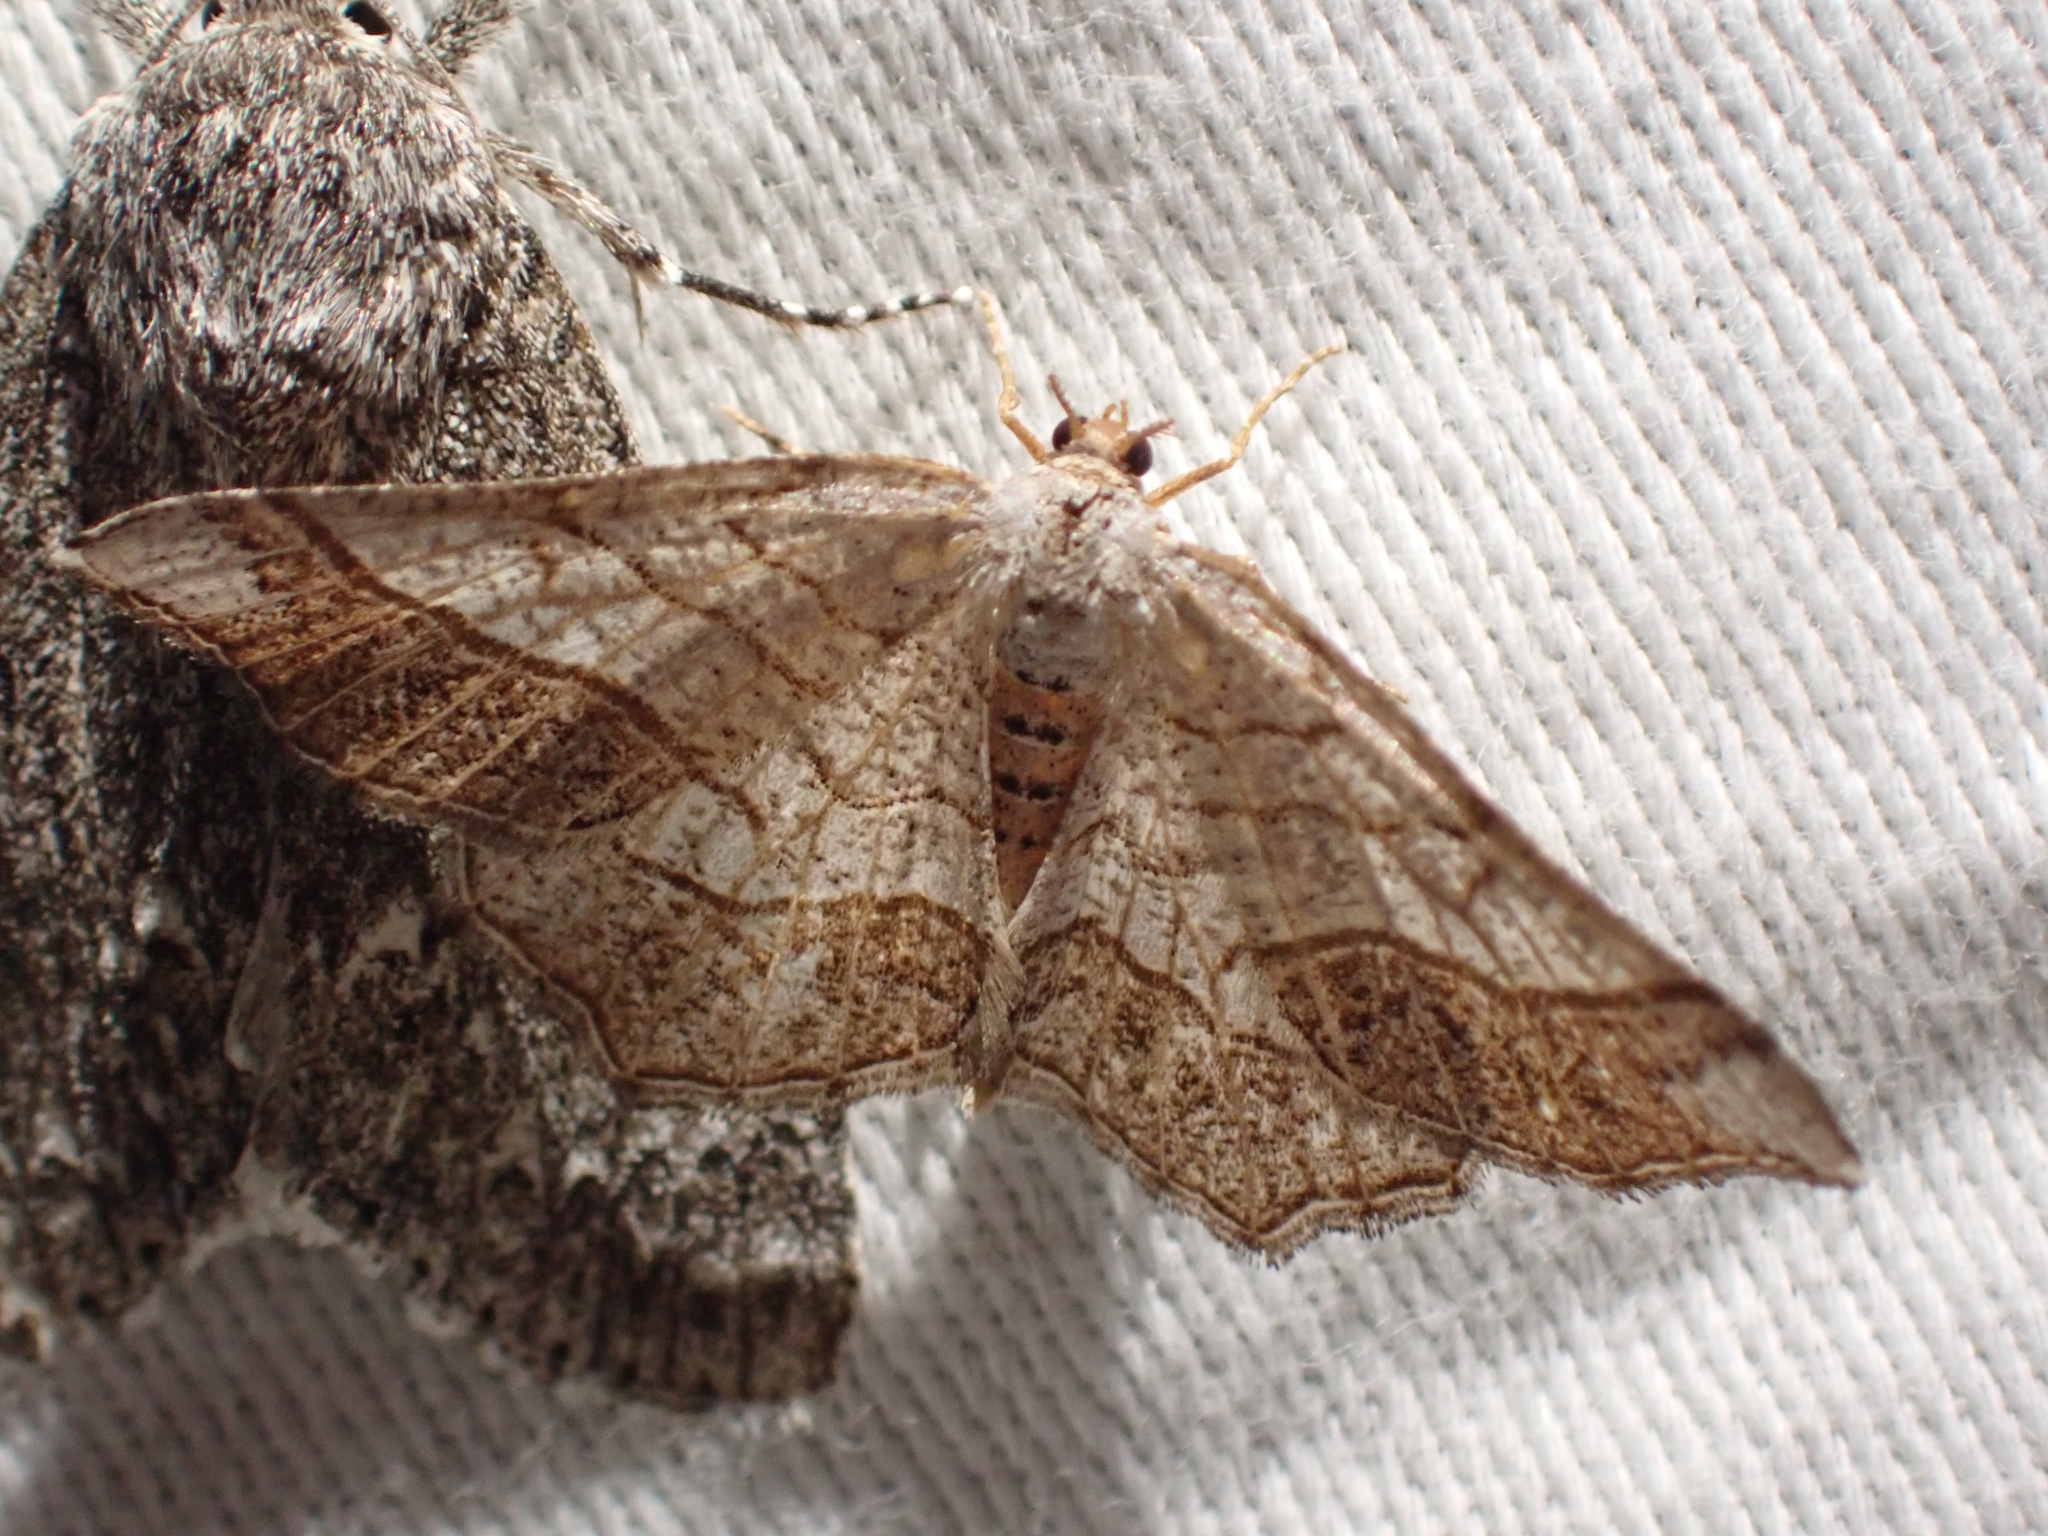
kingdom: Animalia
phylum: Arthropoda
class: Insecta
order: Lepidoptera
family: Geometridae
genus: Eumacaria
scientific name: Eumacaria madopata
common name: Brown-bordered geometer
